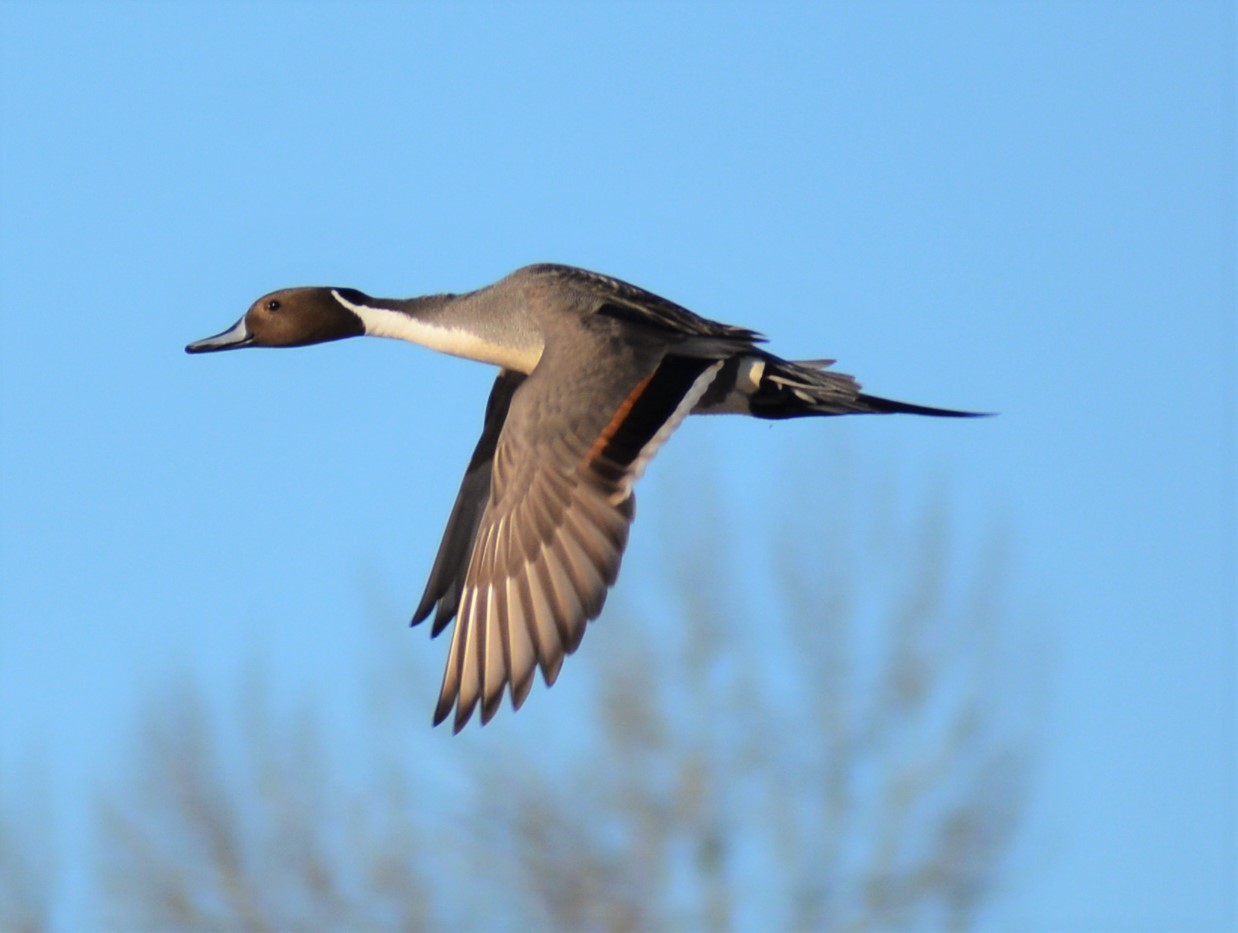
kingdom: Animalia
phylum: Chordata
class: Aves
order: Anseriformes
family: Anatidae
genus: Anas
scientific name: Anas acuta
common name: Northern pintail
